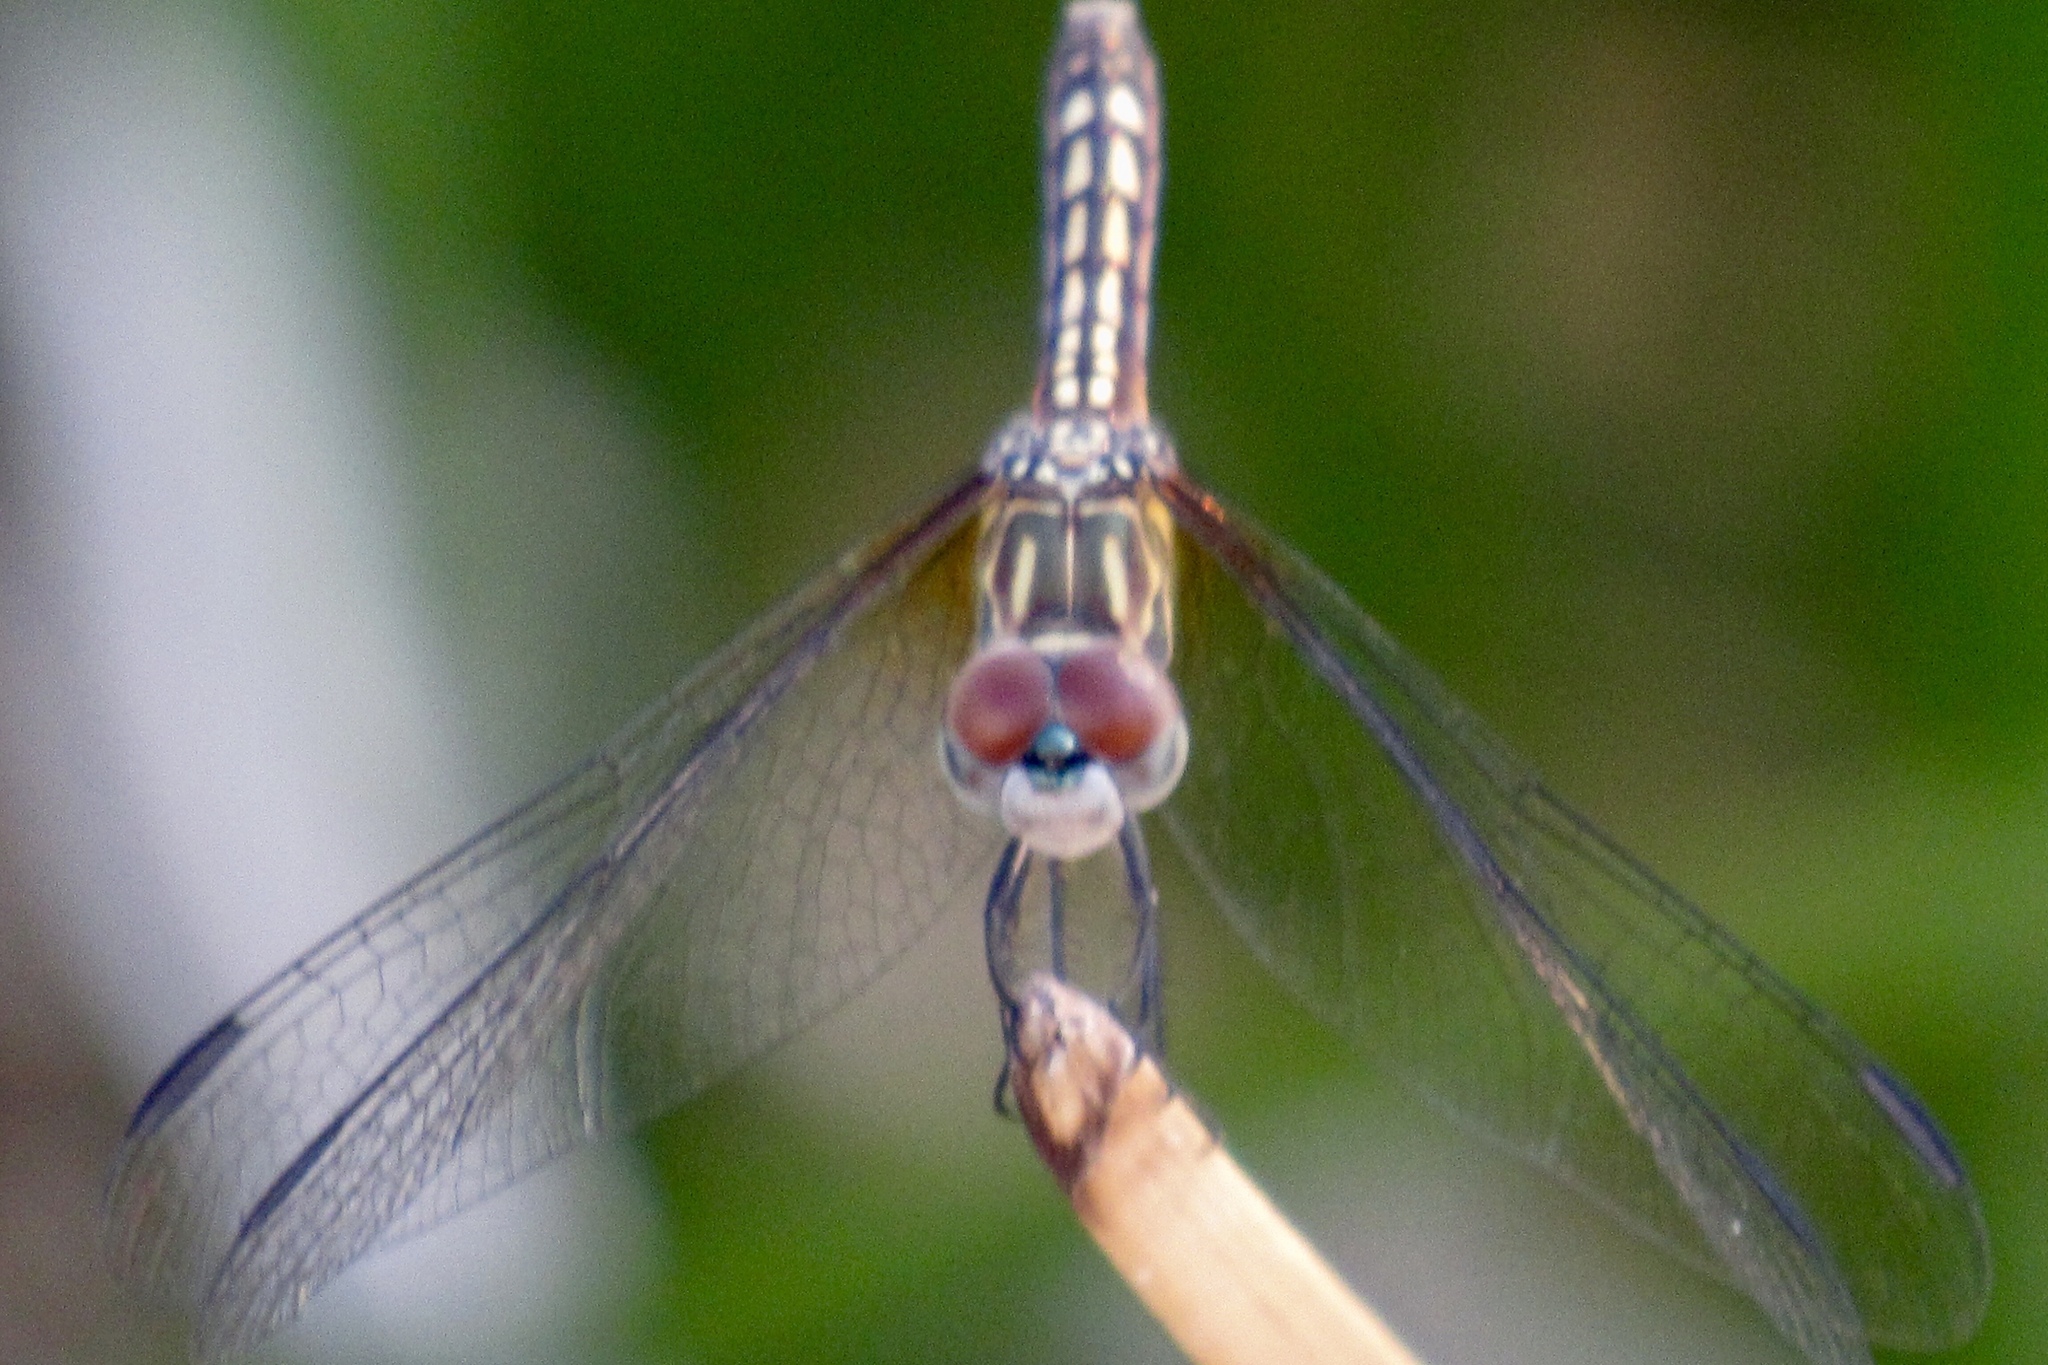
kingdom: Animalia
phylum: Arthropoda
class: Insecta
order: Odonata
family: Libellulidae
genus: Pachydiplax
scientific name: Pachydiplax longipennis
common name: Blue dasher
